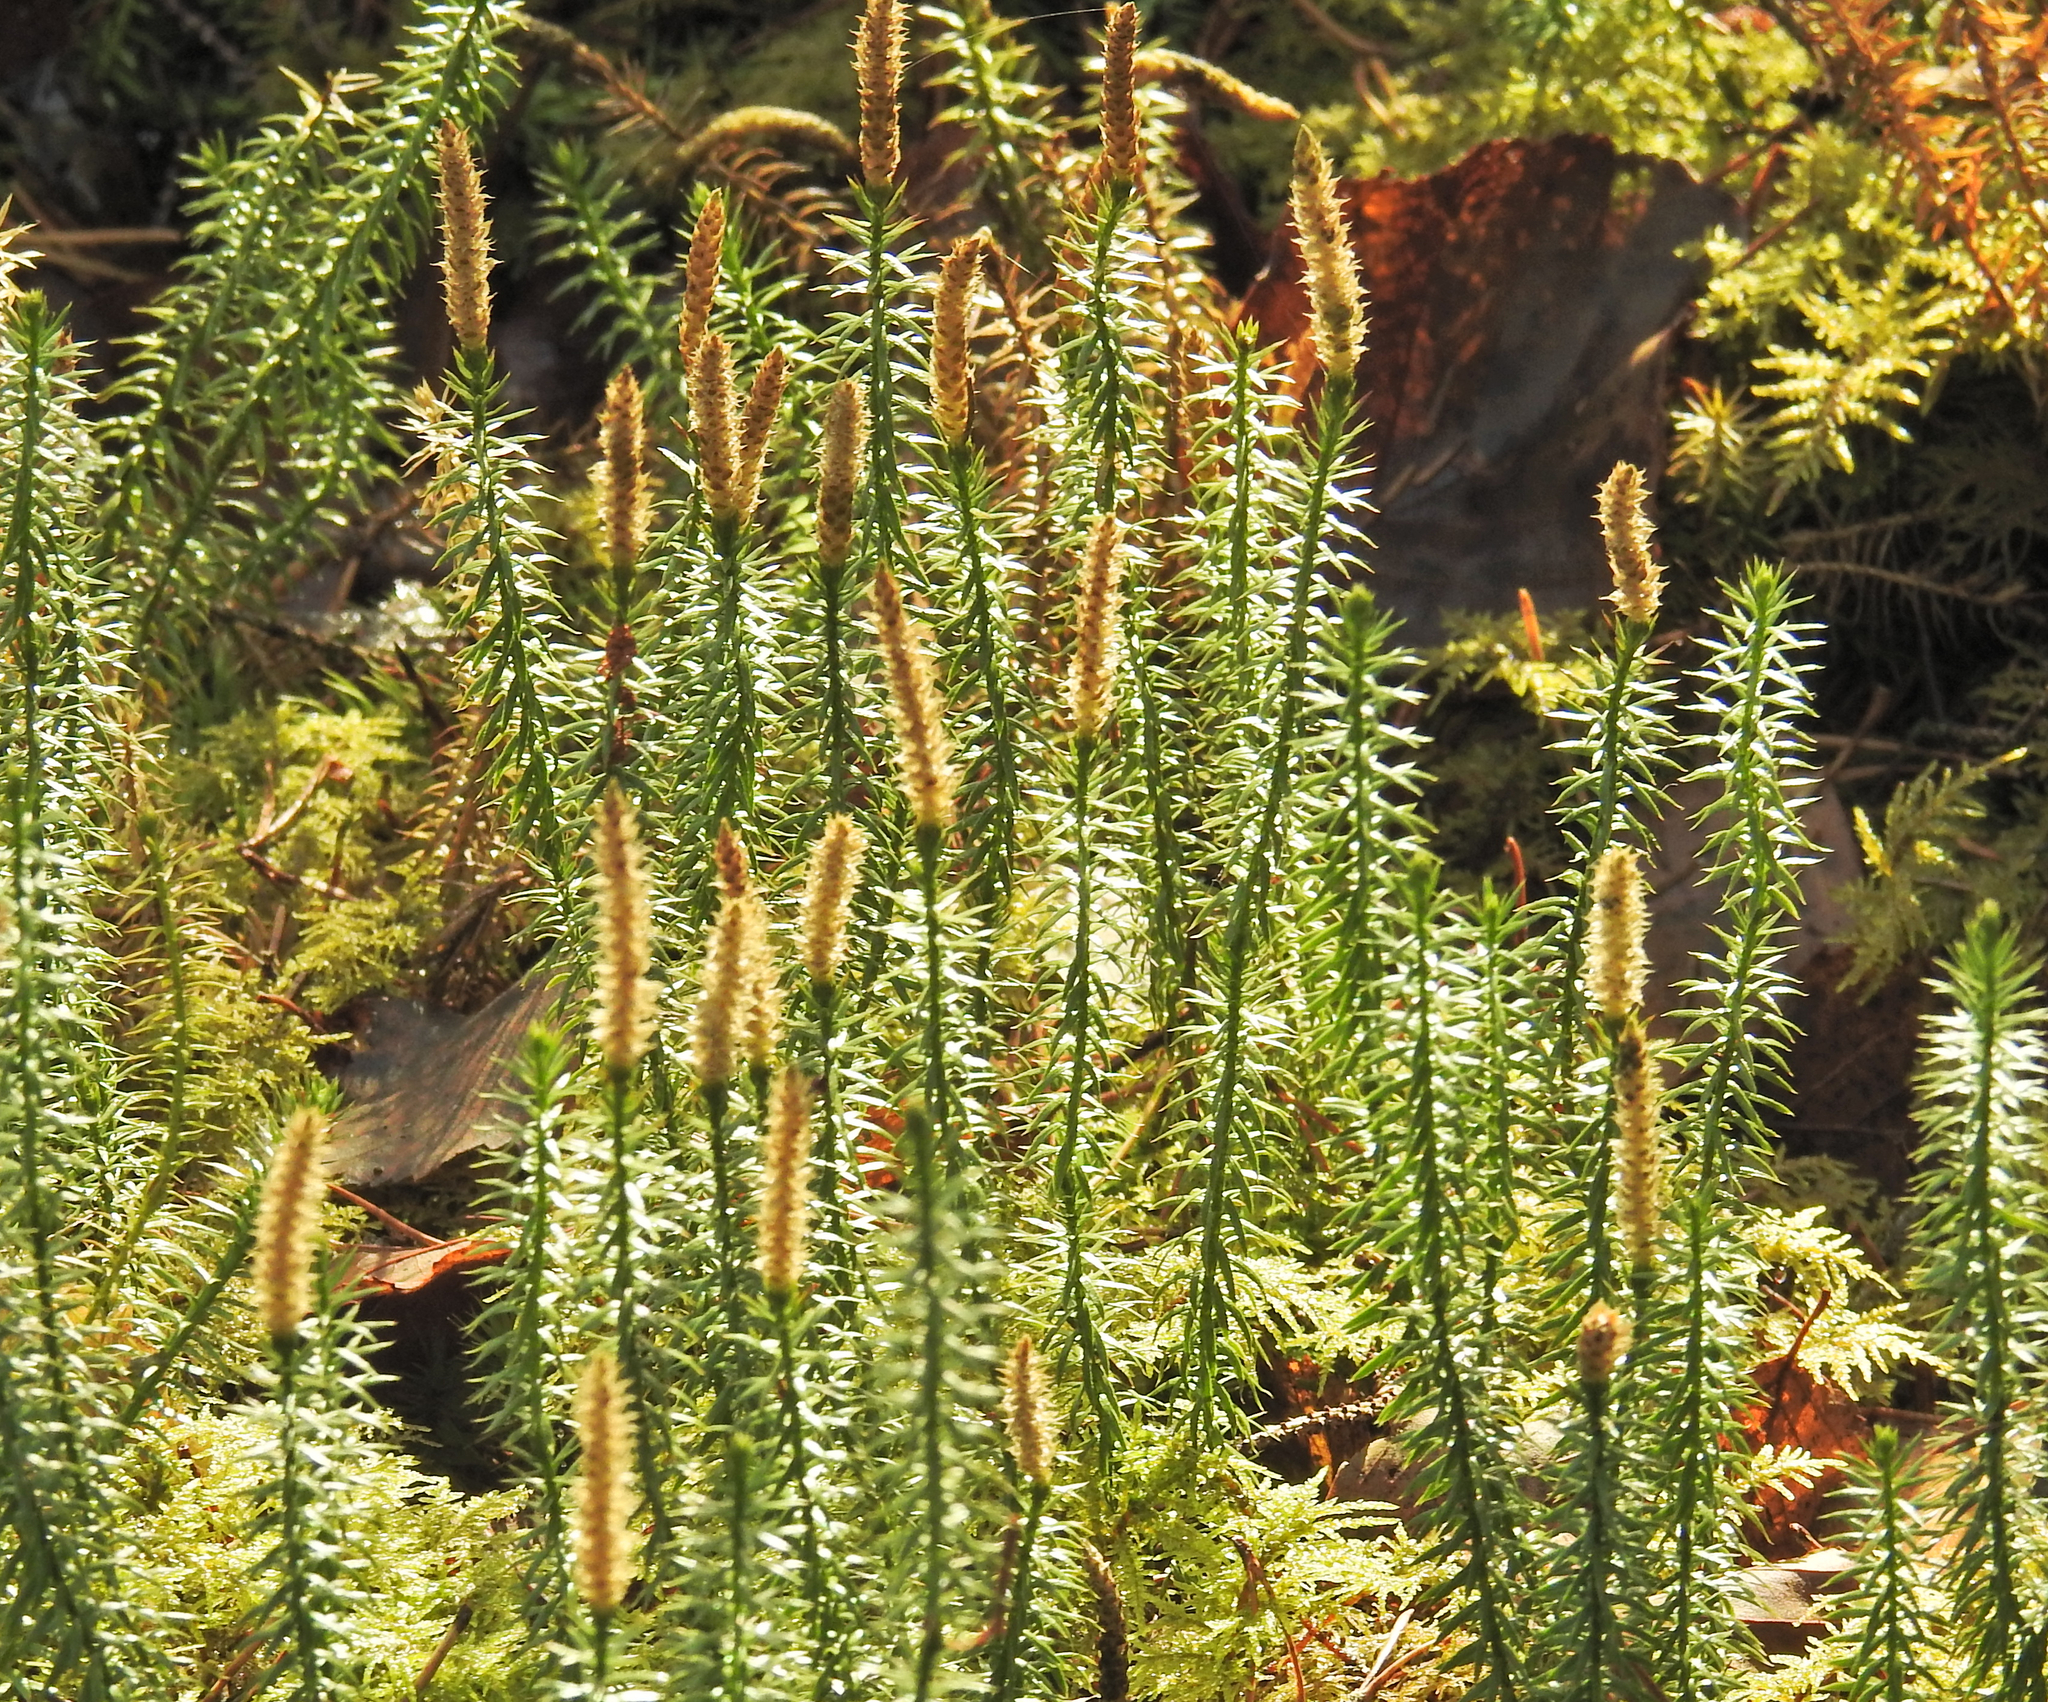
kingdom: Plantae
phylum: Tracheophyta
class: Lycopodiopsida
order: Lycopodiales
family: Lycopodiaceae
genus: Spinulum
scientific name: Spinulum annotinum
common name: Interrupted club-moss
